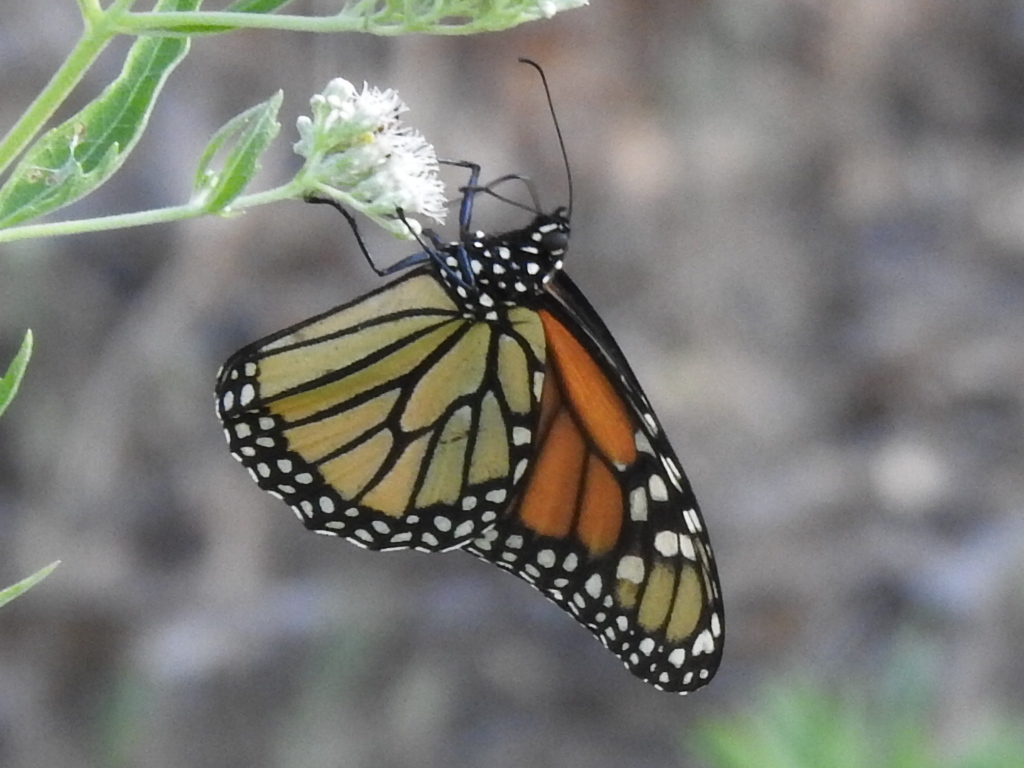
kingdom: Animalia
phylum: Arthropoda
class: Insecta
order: Lepidoptera
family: Nymphalidae
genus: Danaus
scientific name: Danaus plexippus
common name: Monarch
